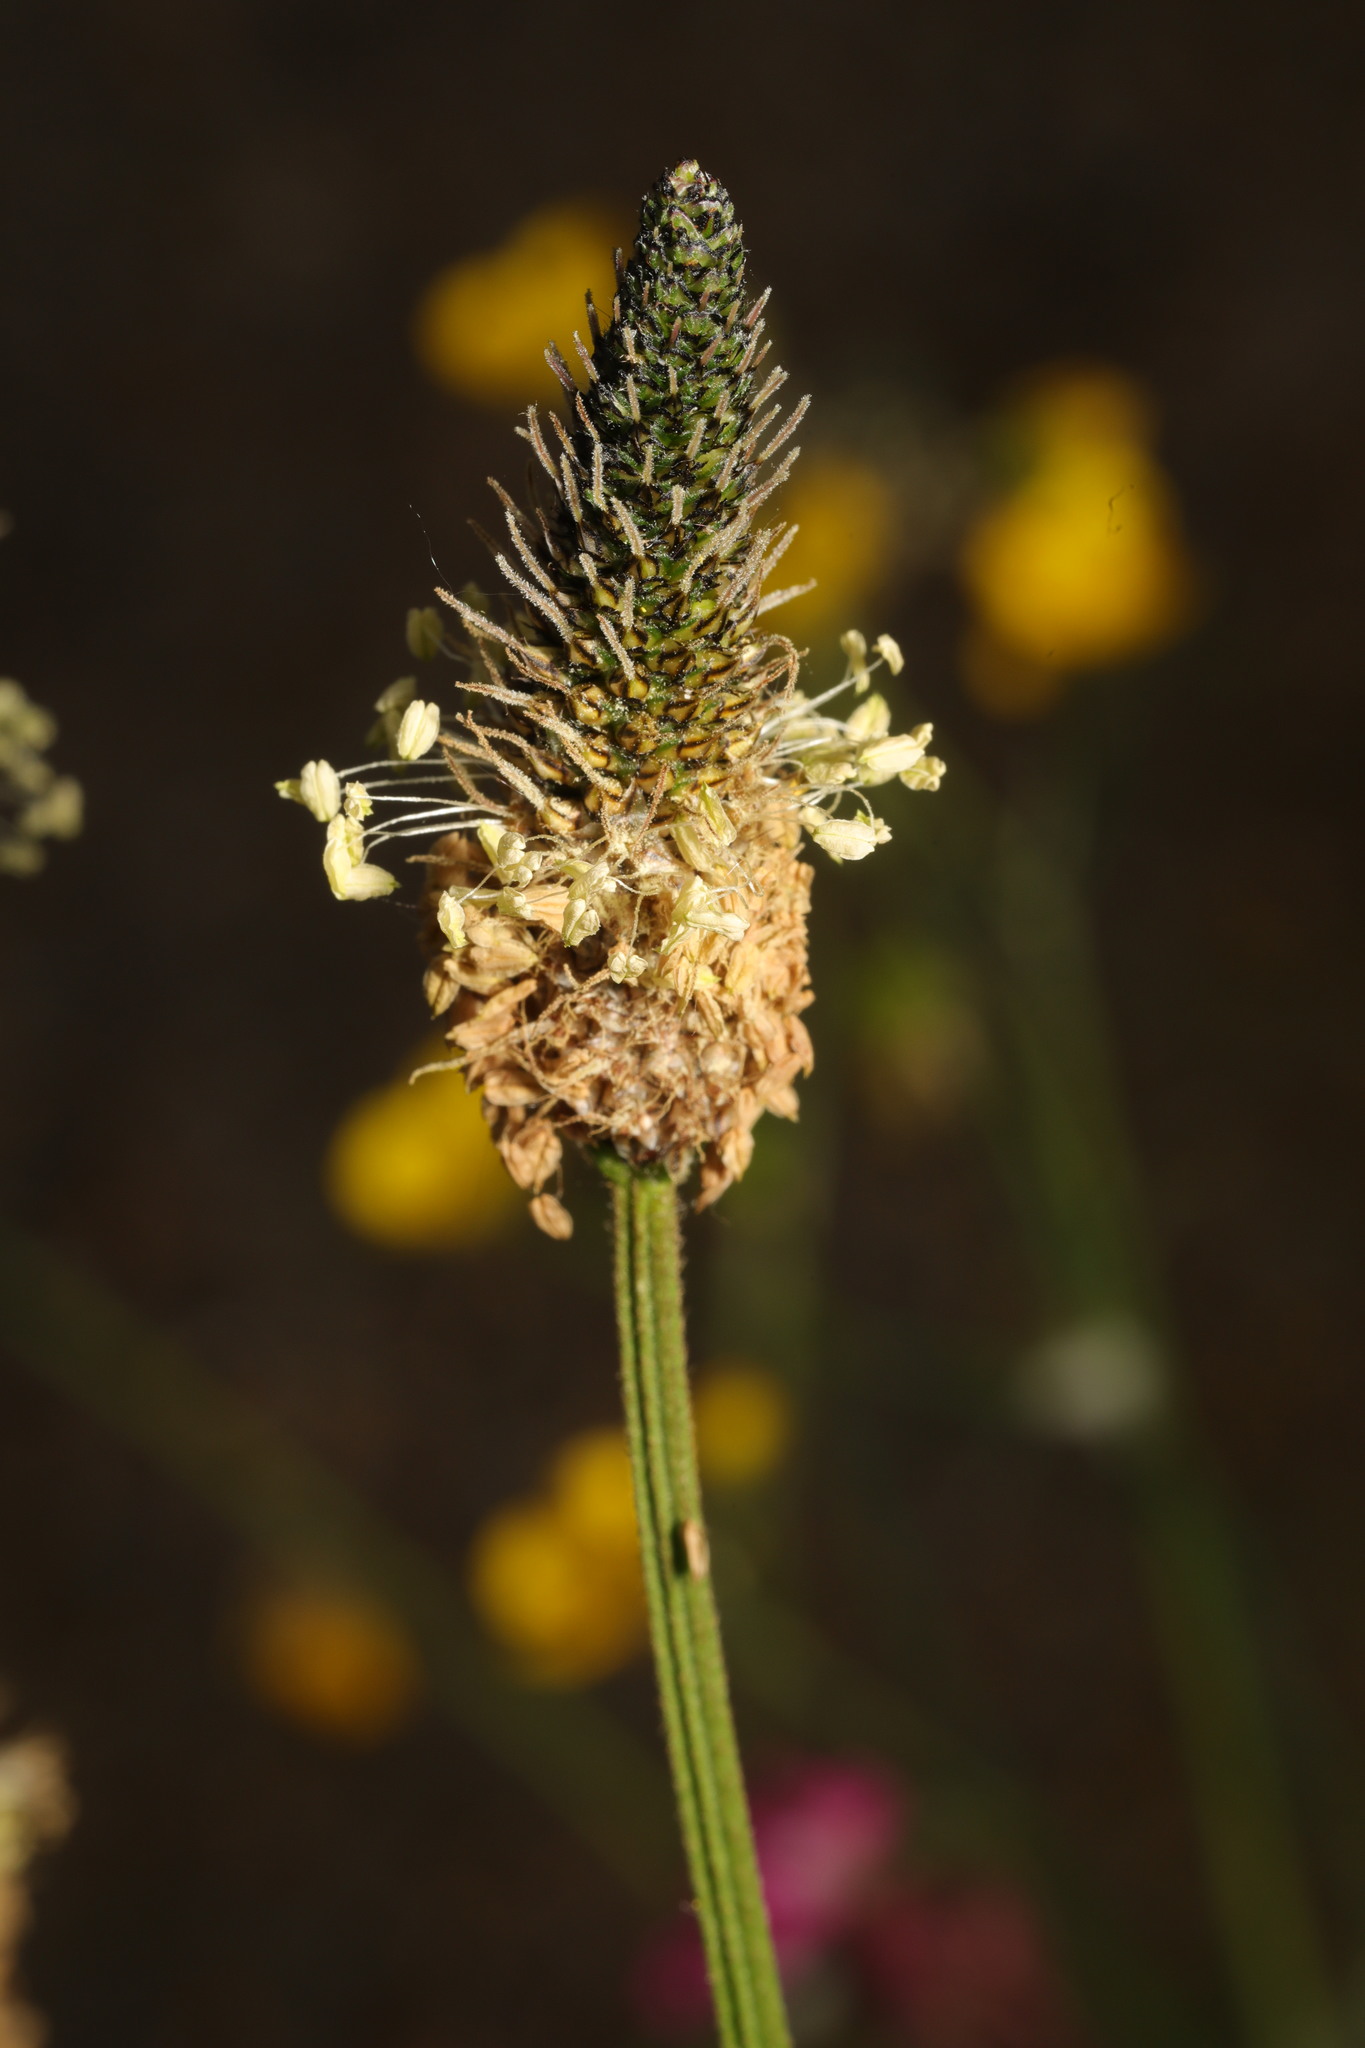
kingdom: Plantae
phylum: Tracheophyta
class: Magnoliopsida
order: Lamiales
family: Plantaginaceae
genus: Plantago
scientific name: Plantago lanceolata
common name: Ribwort plantain
